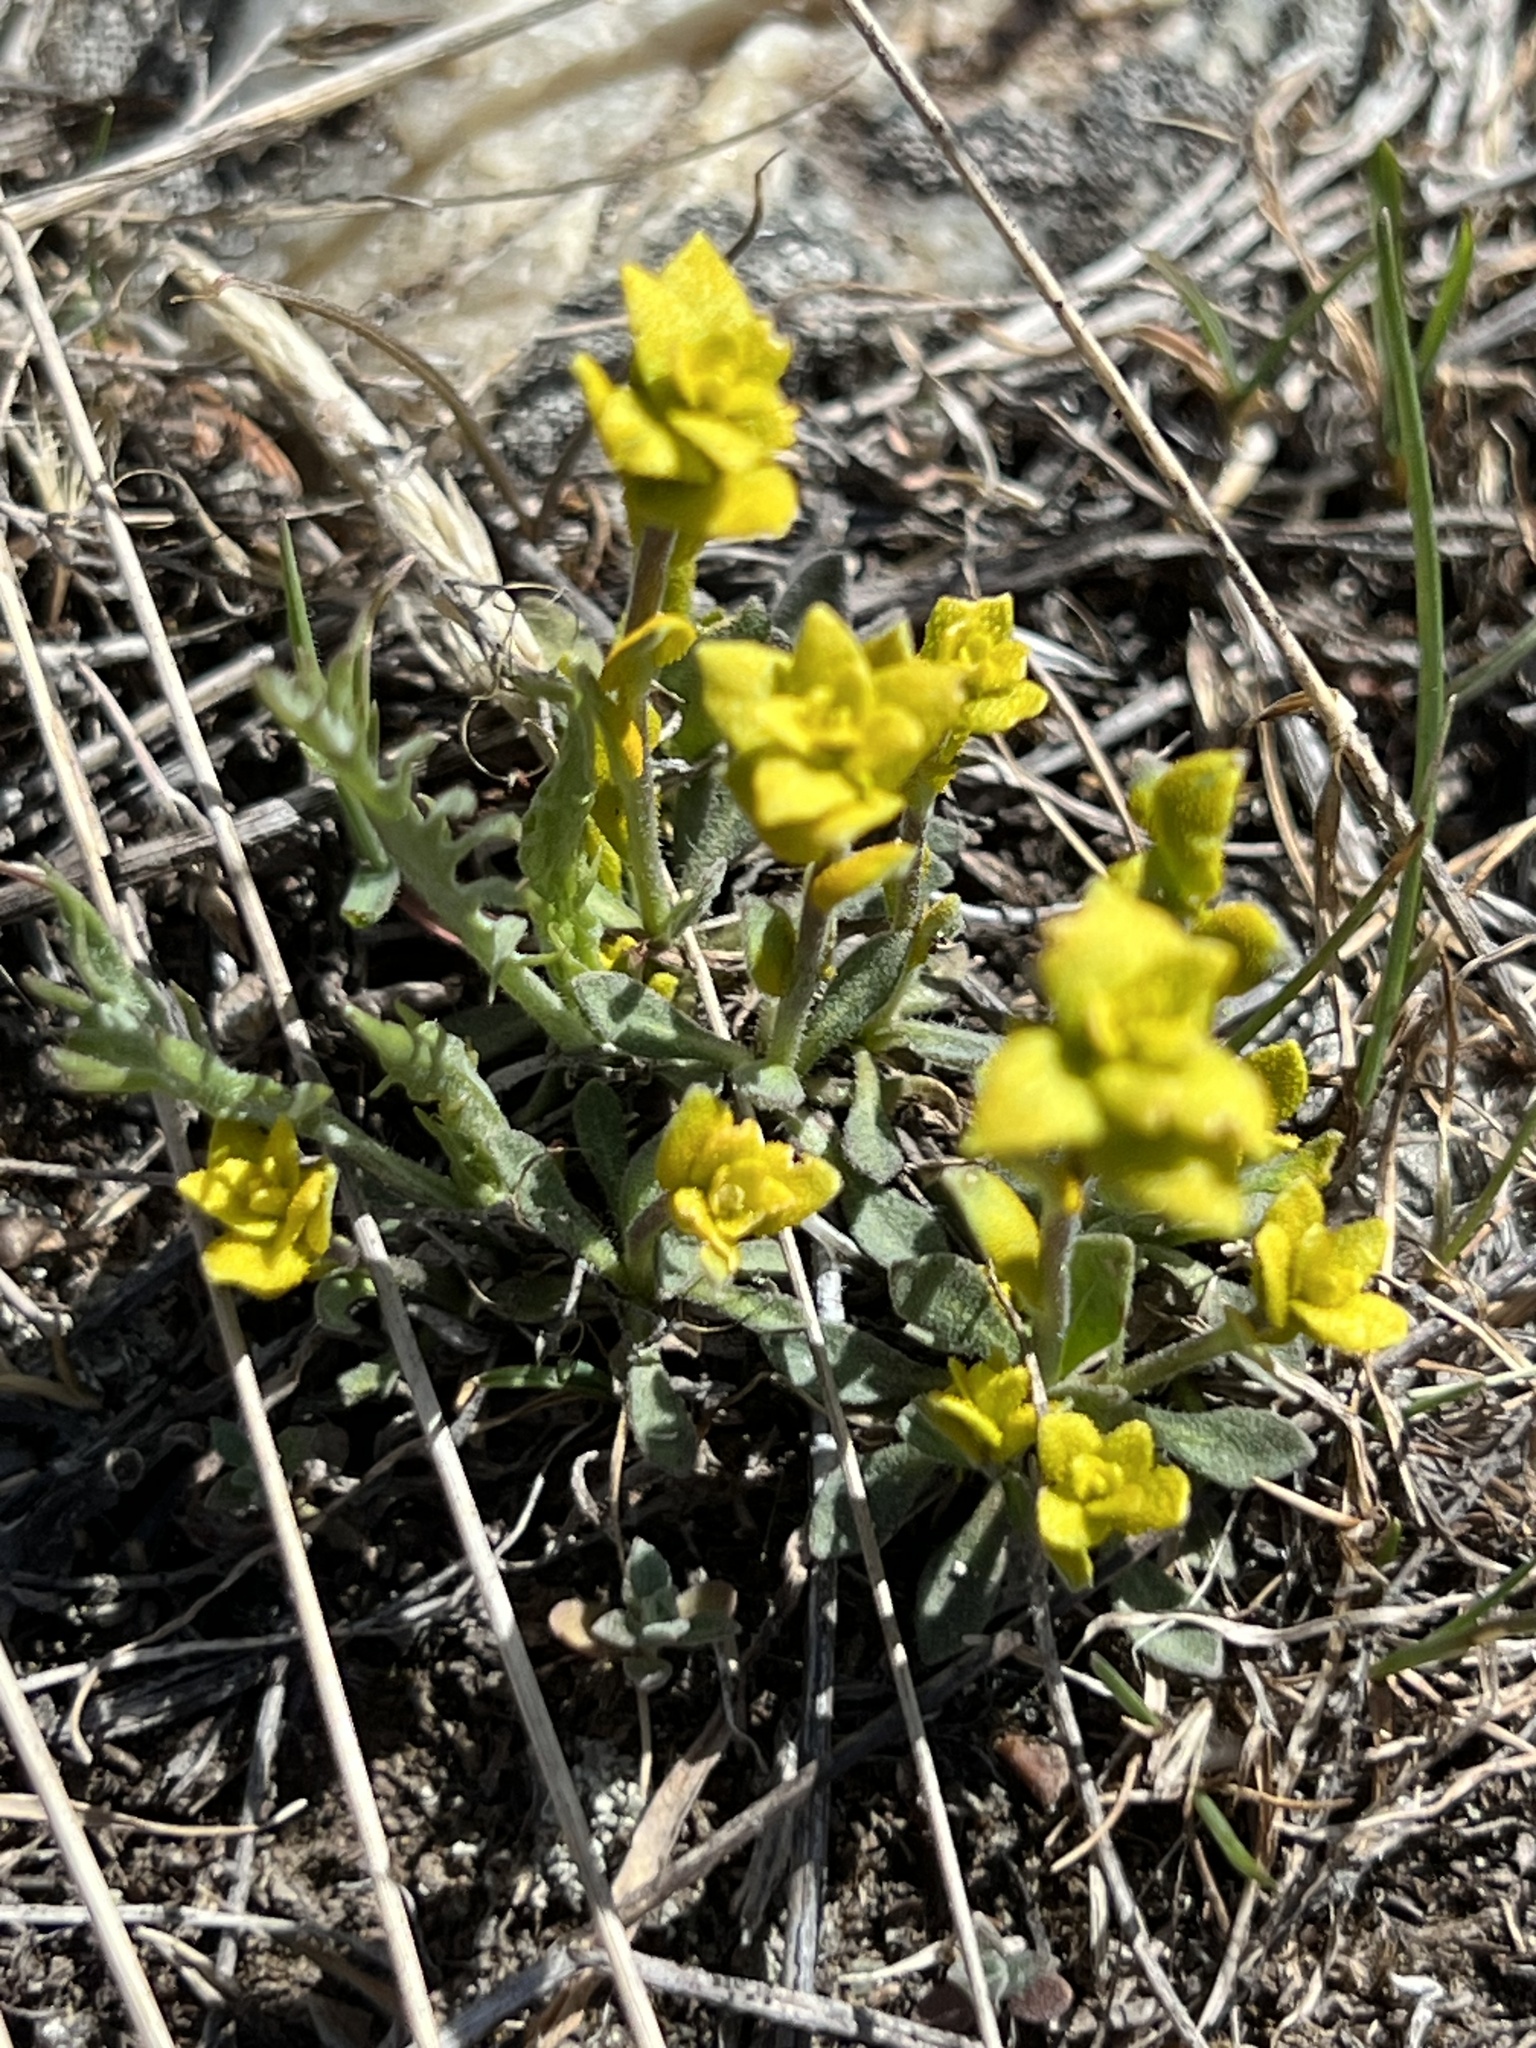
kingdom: Fungi
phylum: Basidiomycota
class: Pucciniomycetes
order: Pucciniales
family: Pucciniaceae
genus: Puccinia
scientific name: Puccinia monoica
